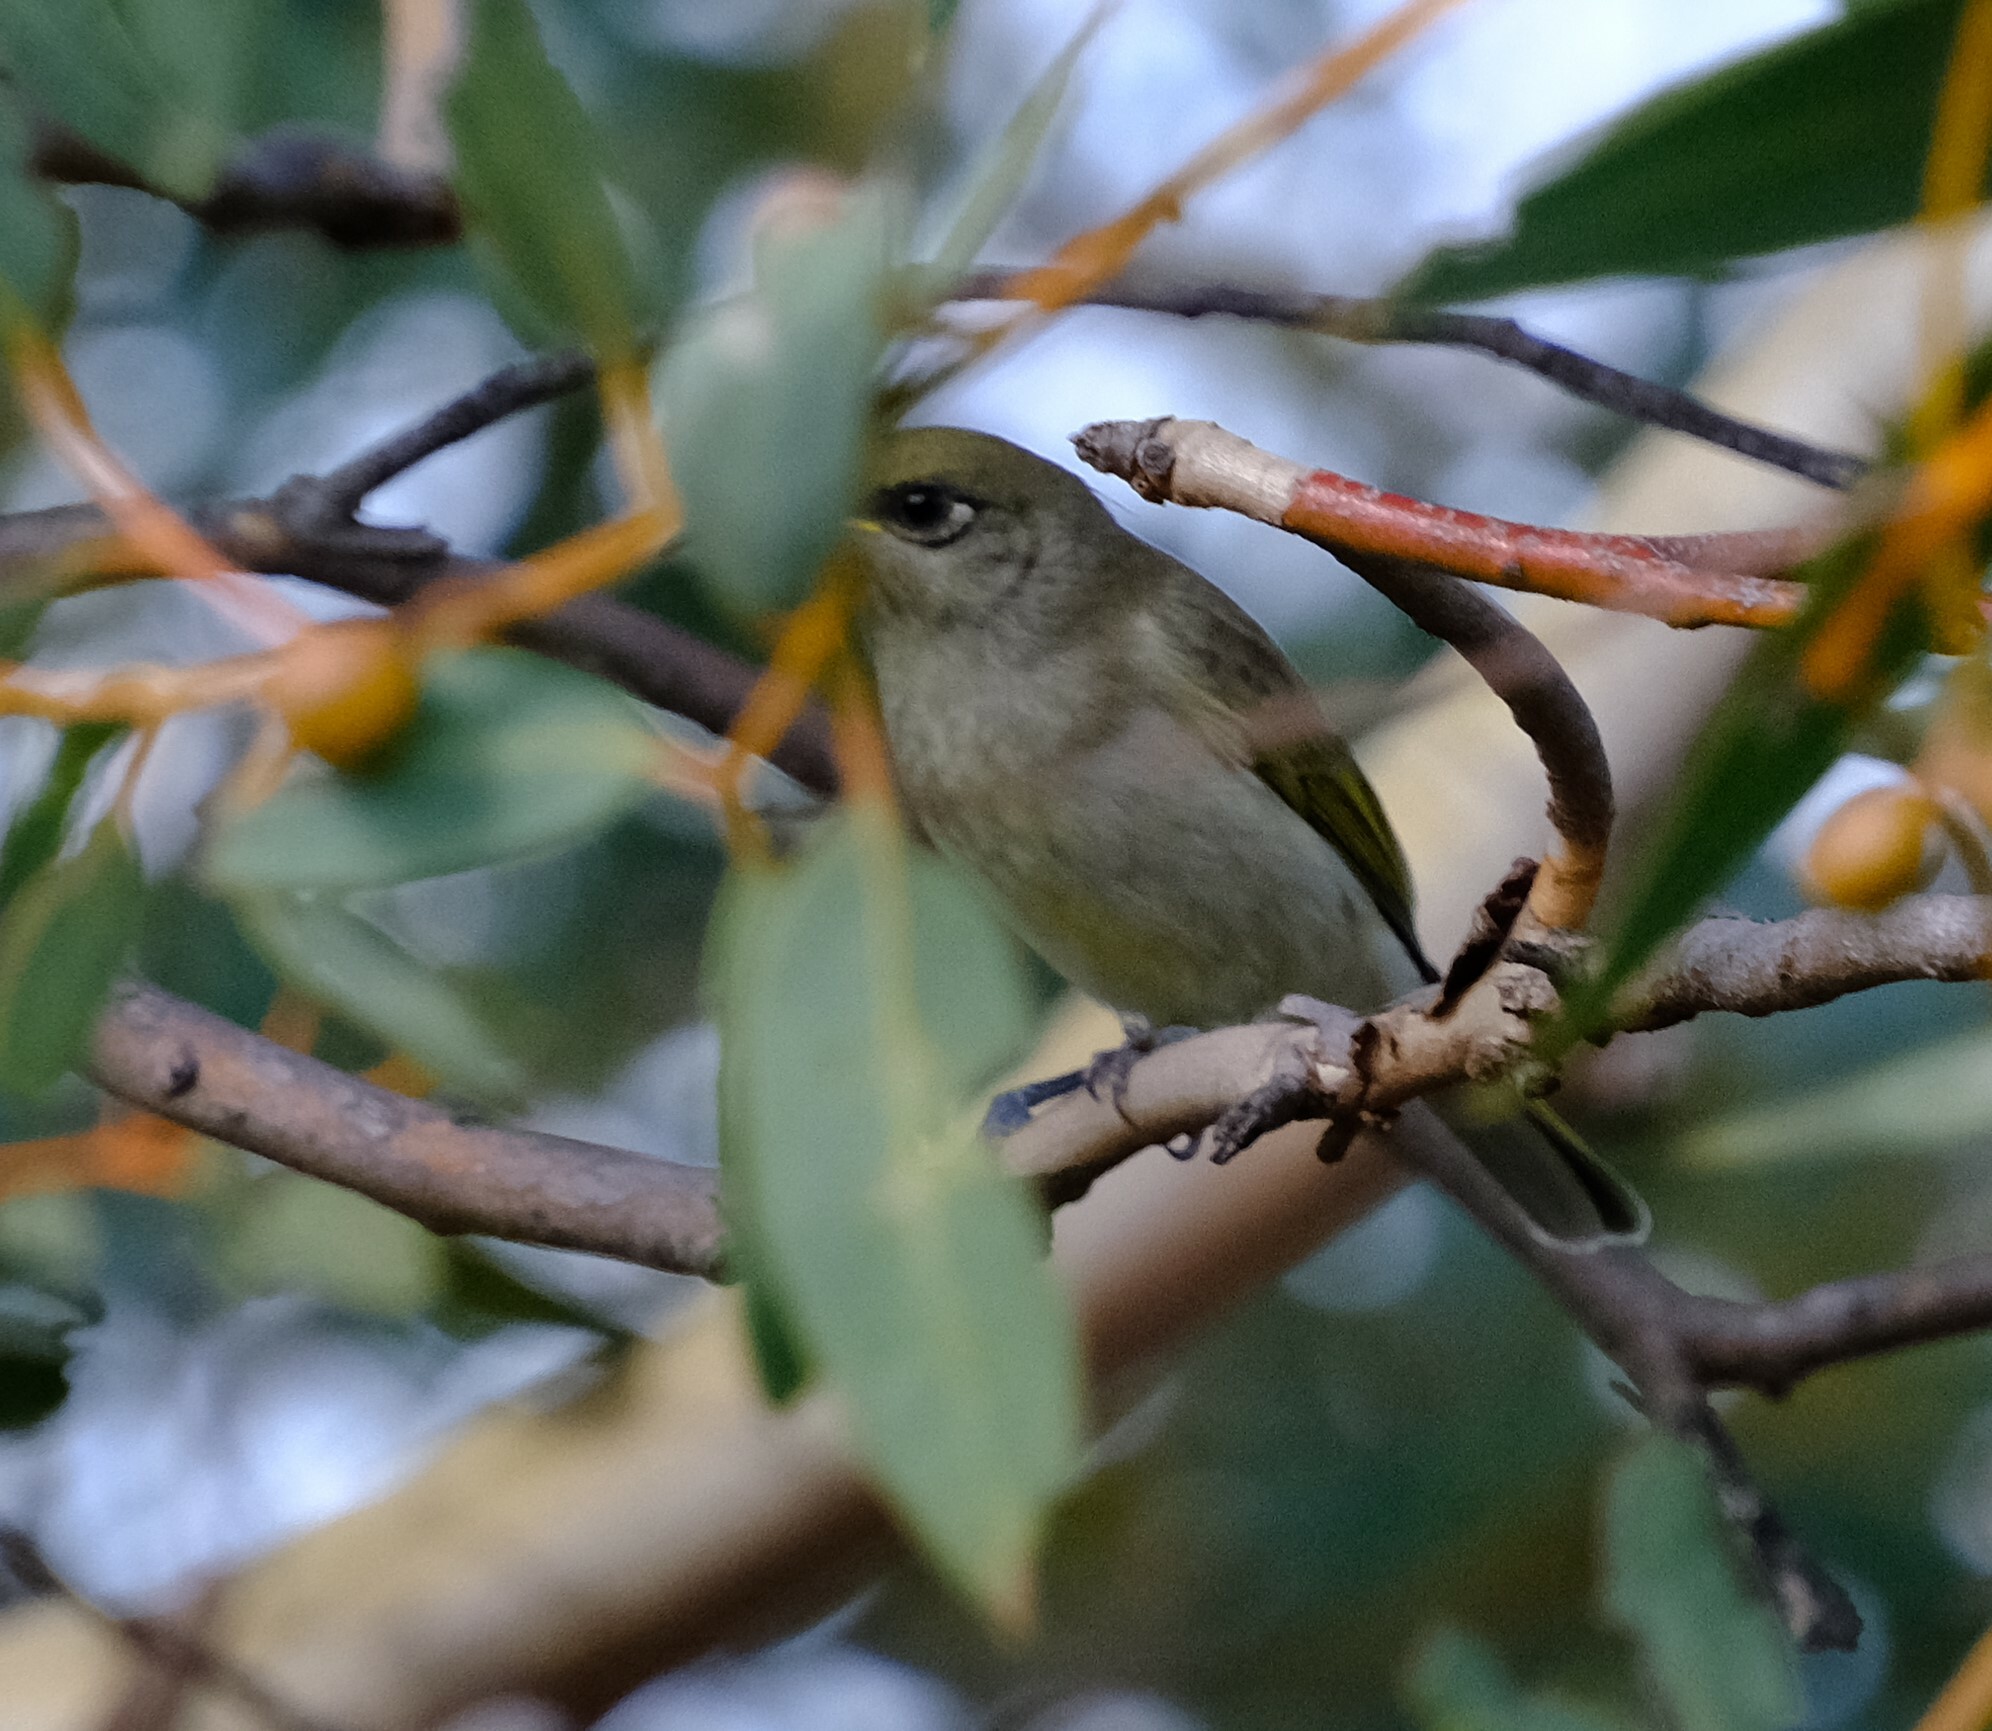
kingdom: Animalia
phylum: Chordata
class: Aves
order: Passeriformes
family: Meliphagidae
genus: Lichmera
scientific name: Lichmera indistincta
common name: Brown honeyeater
